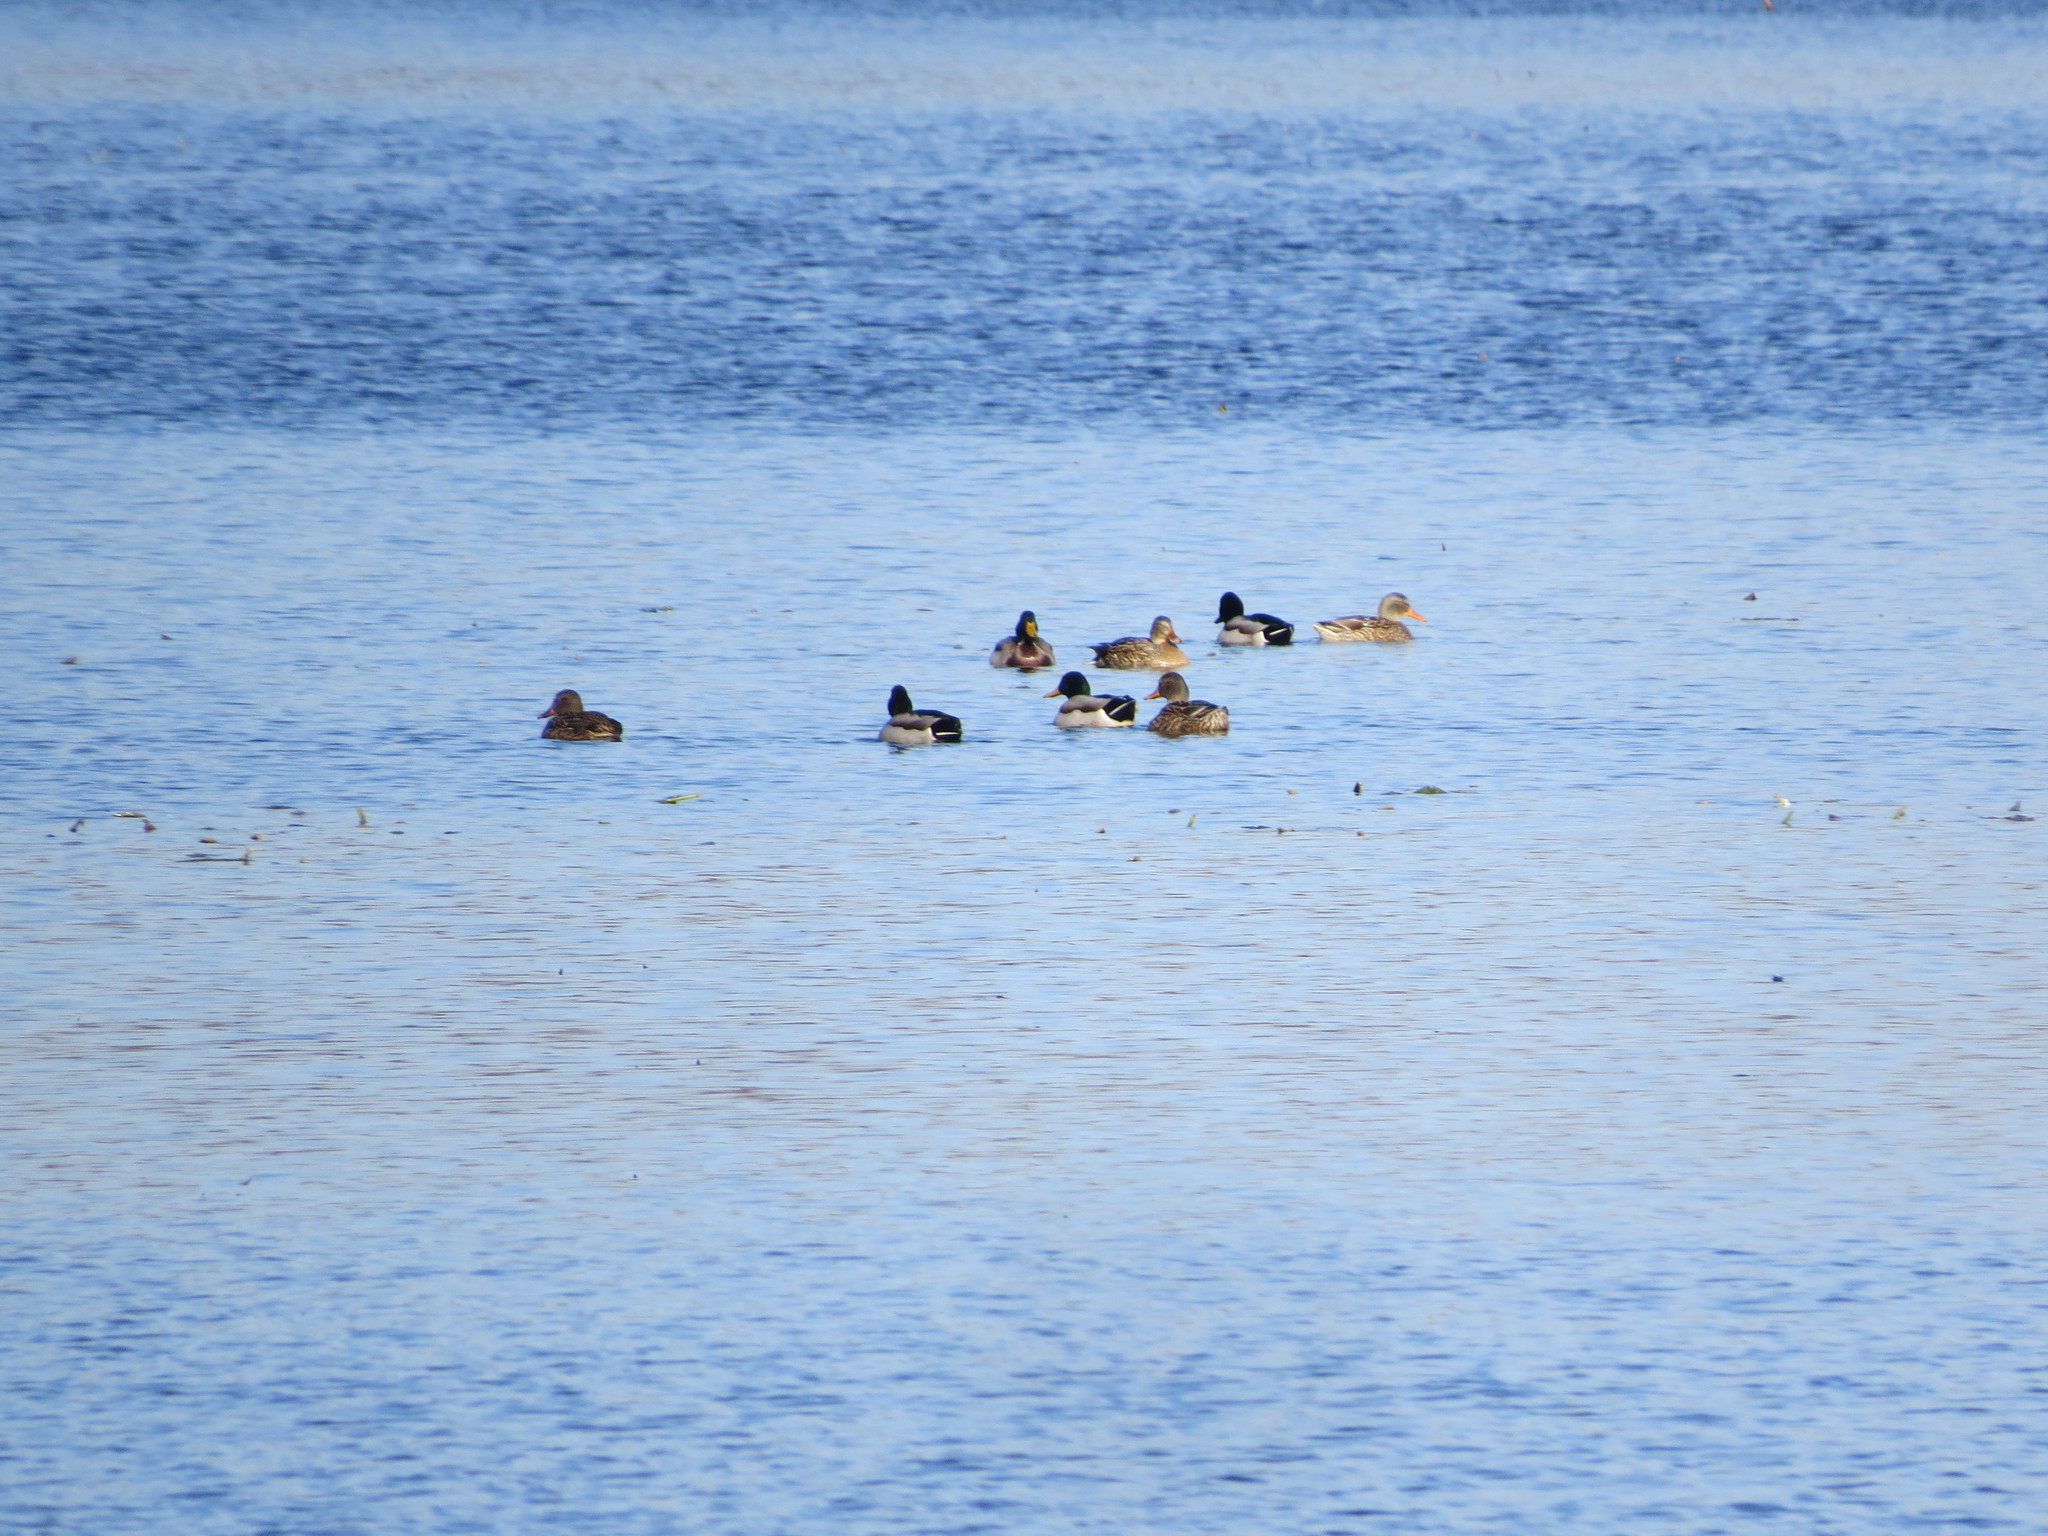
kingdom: Animalia
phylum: Chordata
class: Aves
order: Anseriformes
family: Anatidae
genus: Anas
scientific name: Anas platyrhynchos
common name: Mallard
